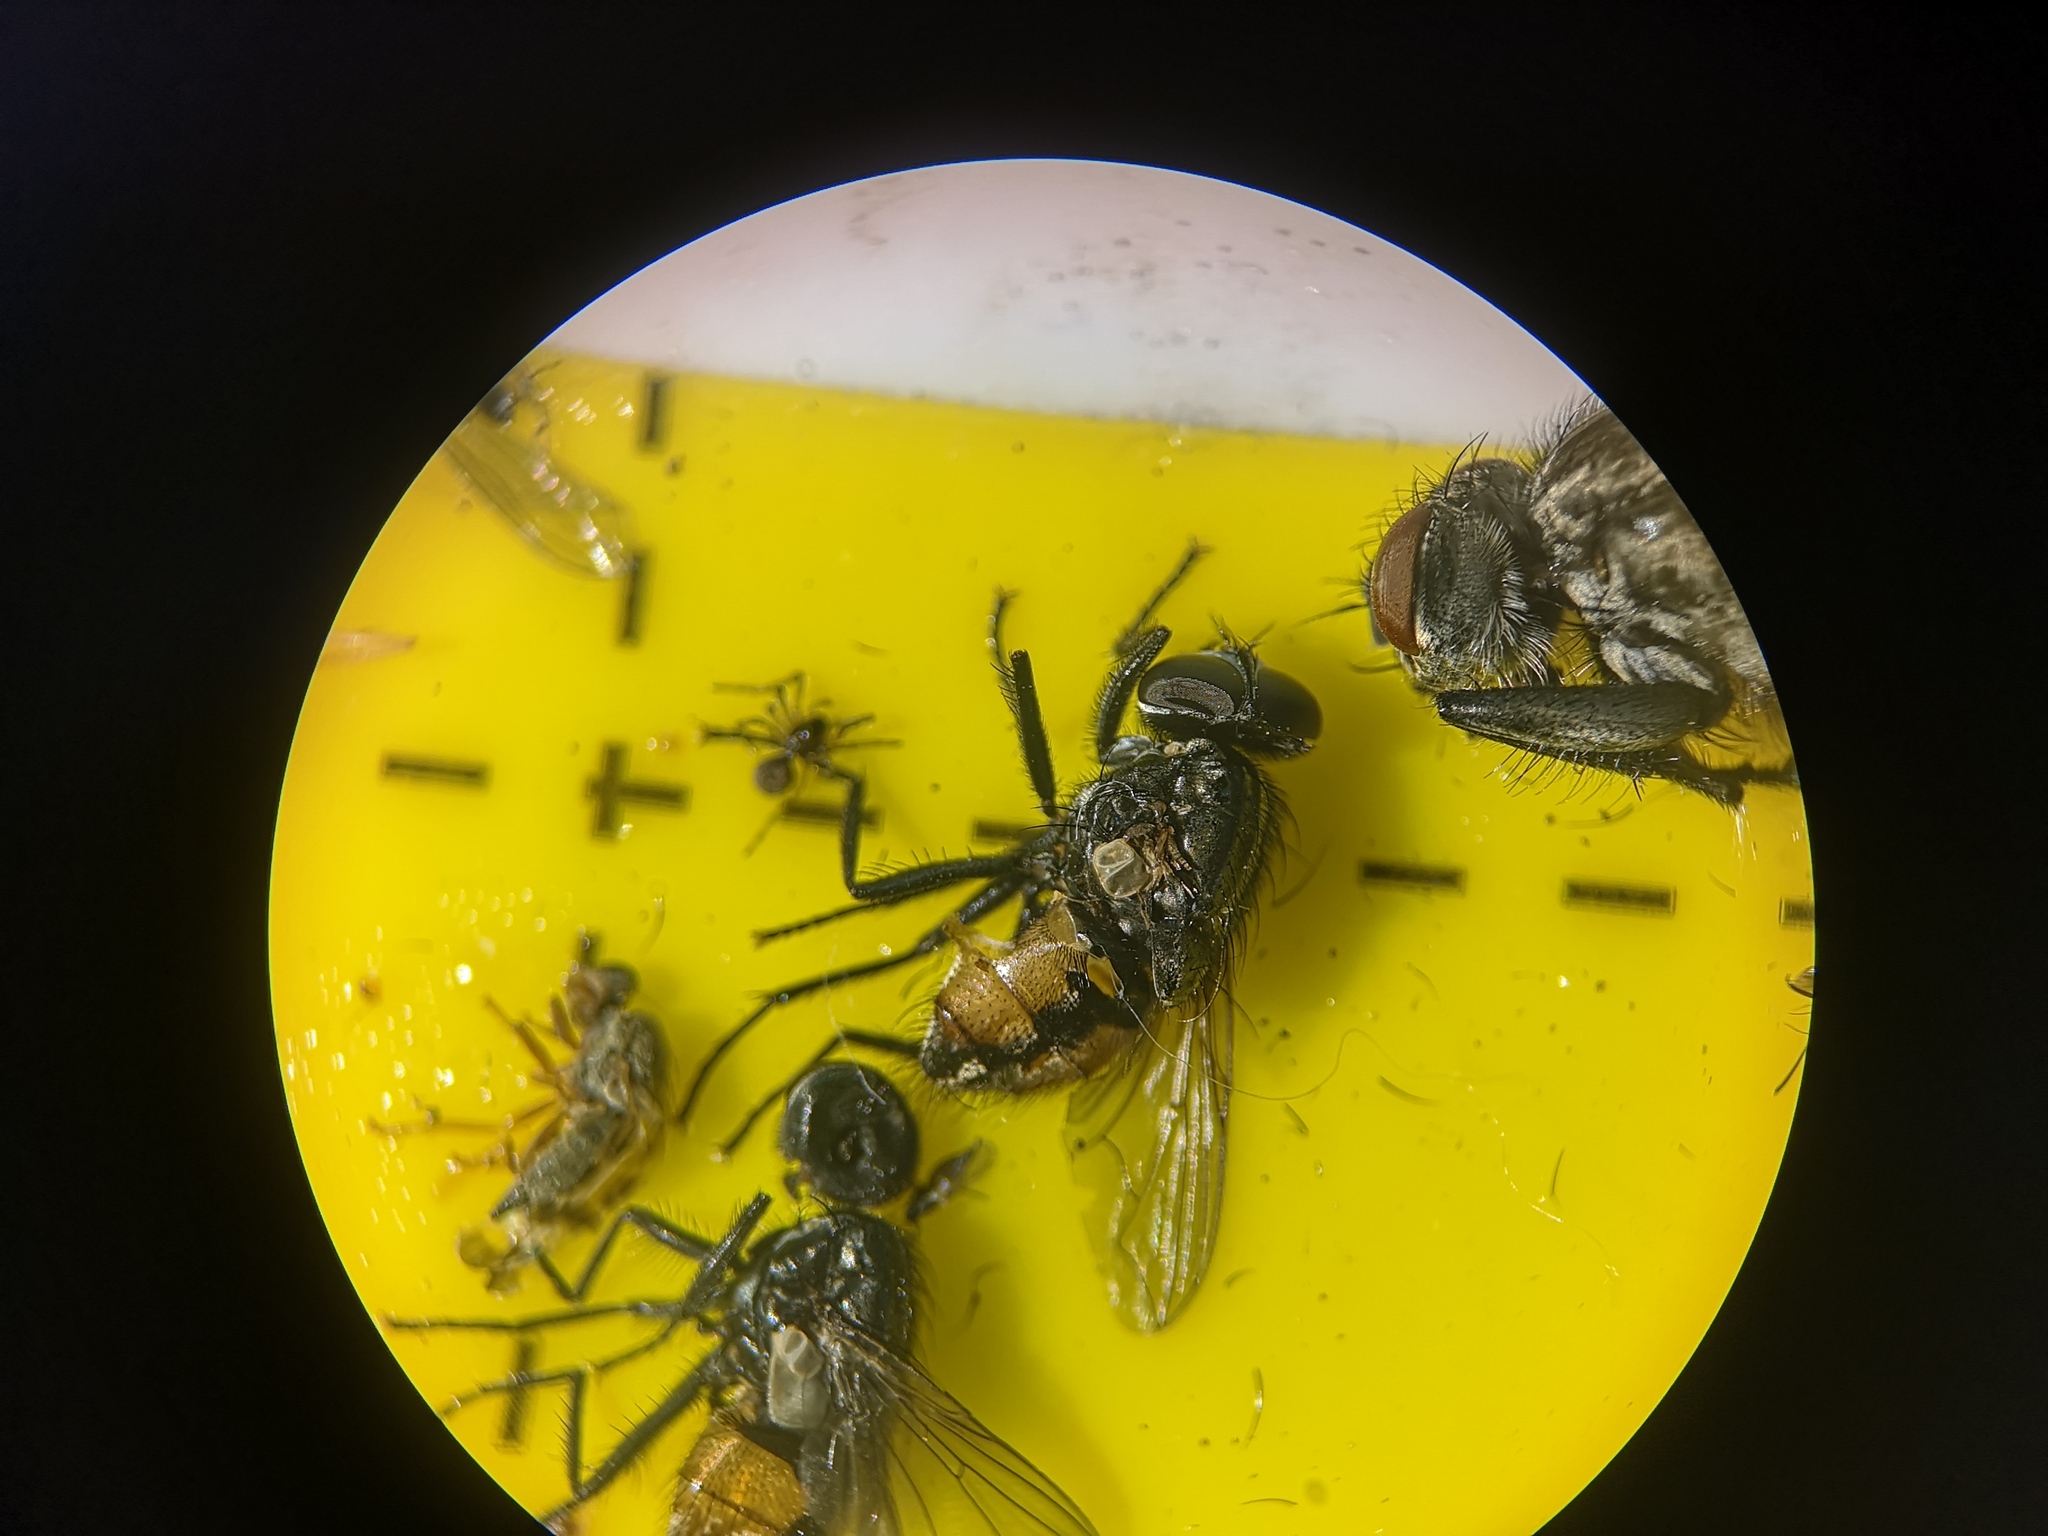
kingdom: Animalia
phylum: Arthropoda
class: Insecta
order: Diptera
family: Muscidae
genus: Musca
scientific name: Musca autumnalis
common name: Face fly
